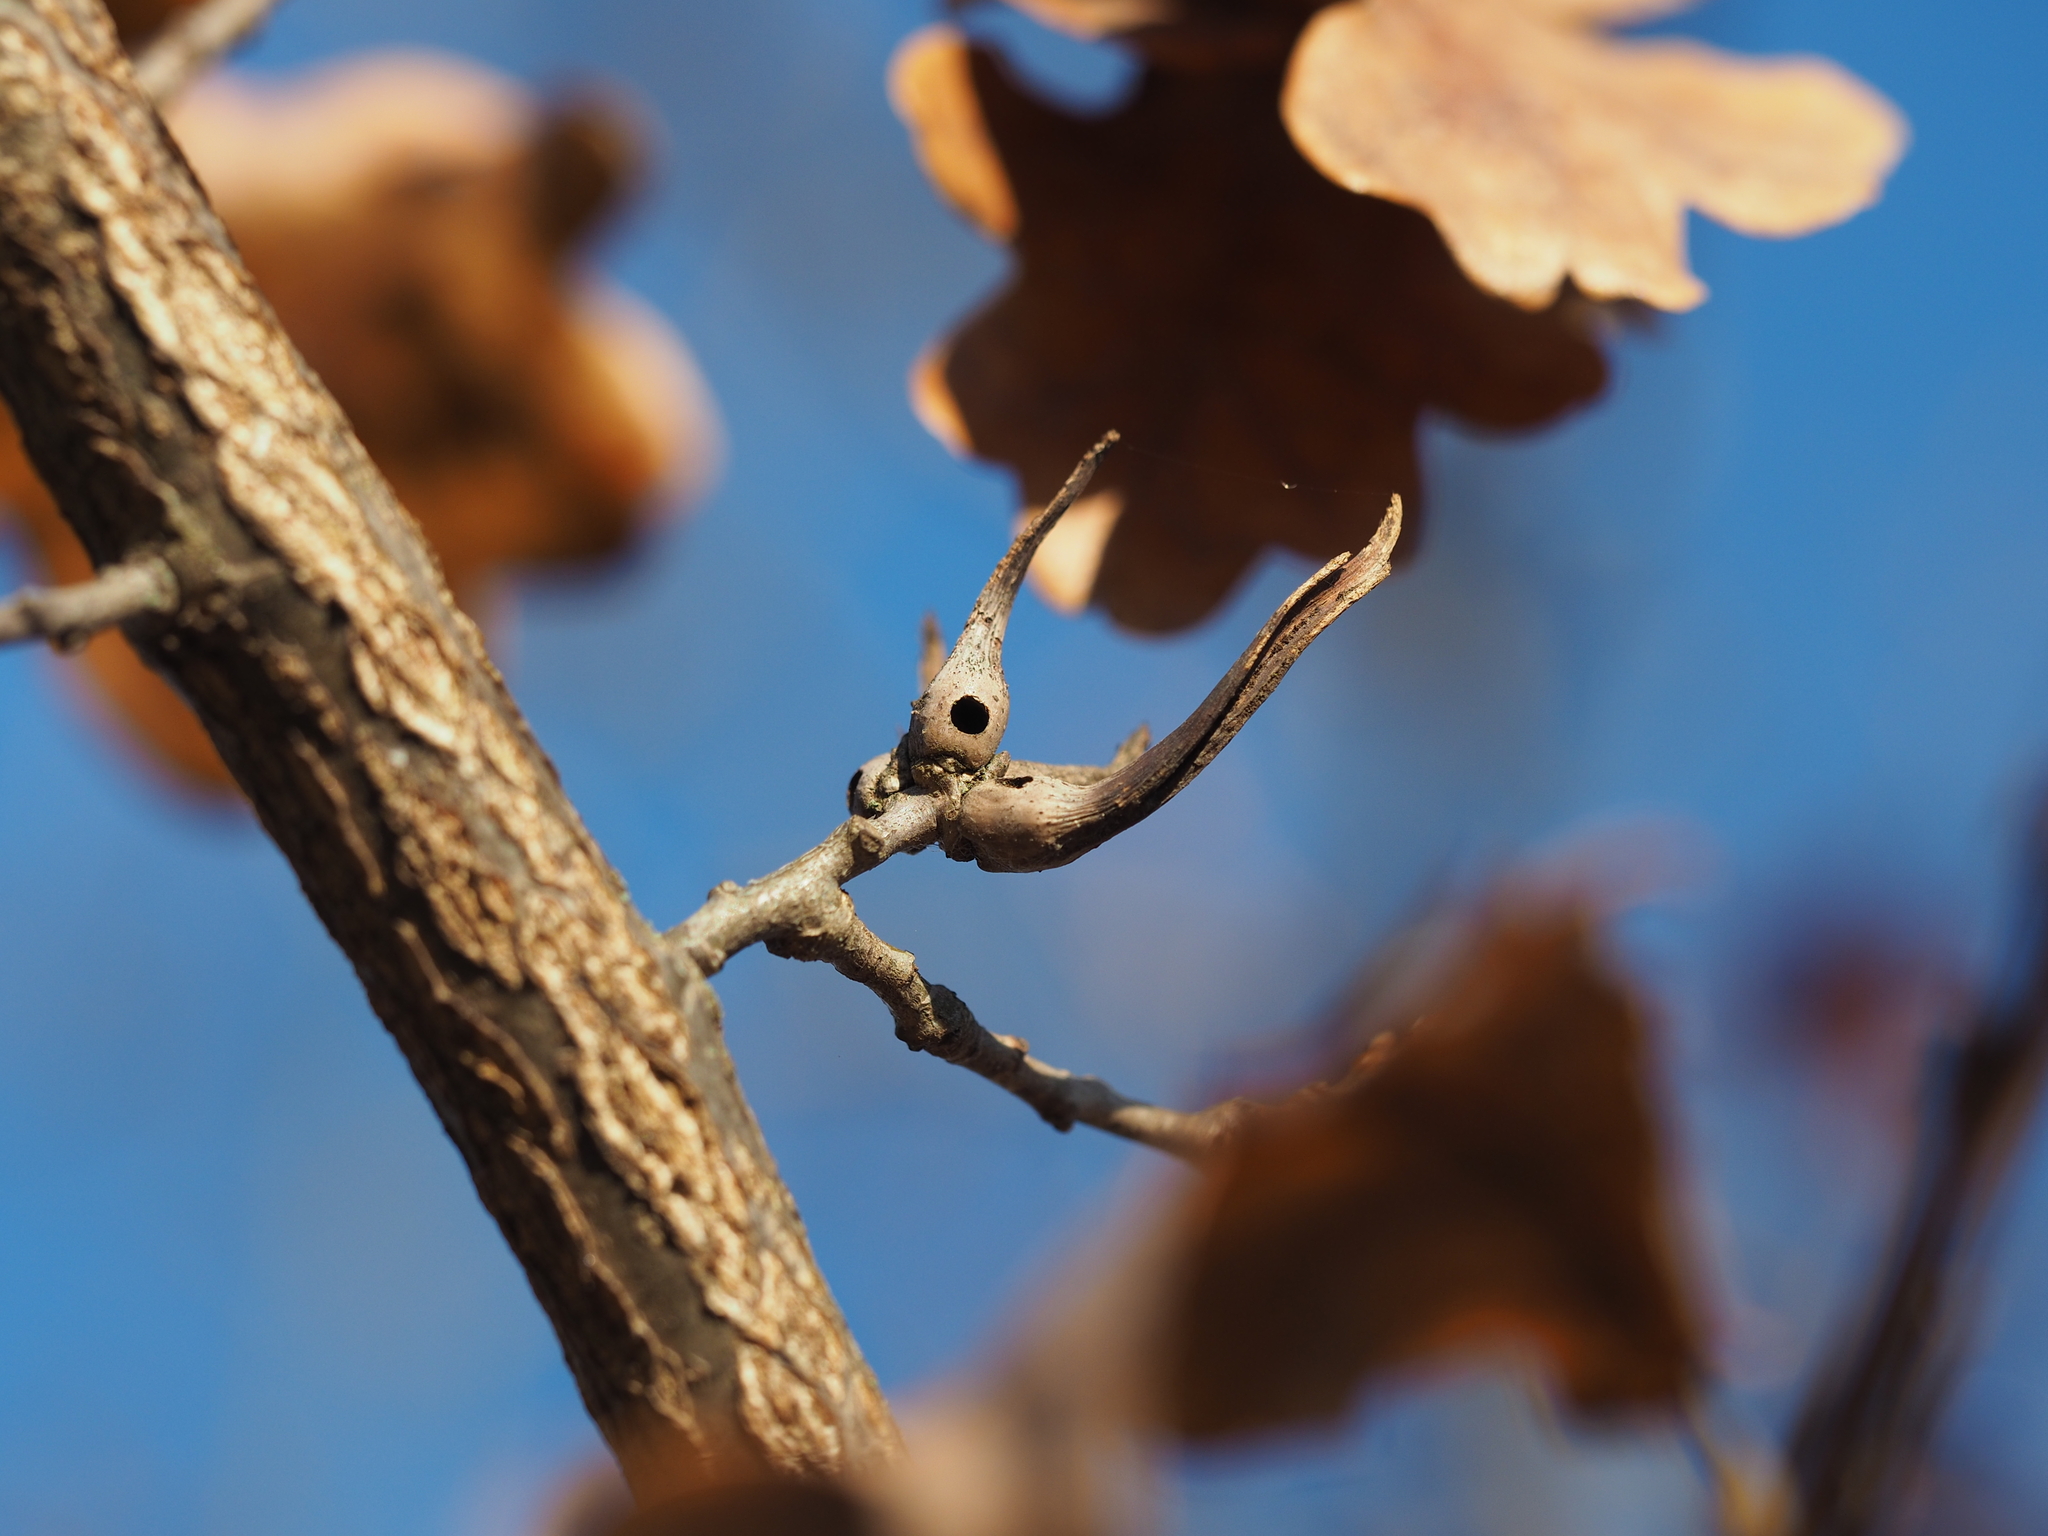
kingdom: Animalia
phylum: Arthropoda
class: Insecta
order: Hymenoptera
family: Cynipidae
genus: Andricus
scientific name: Andricus aries
